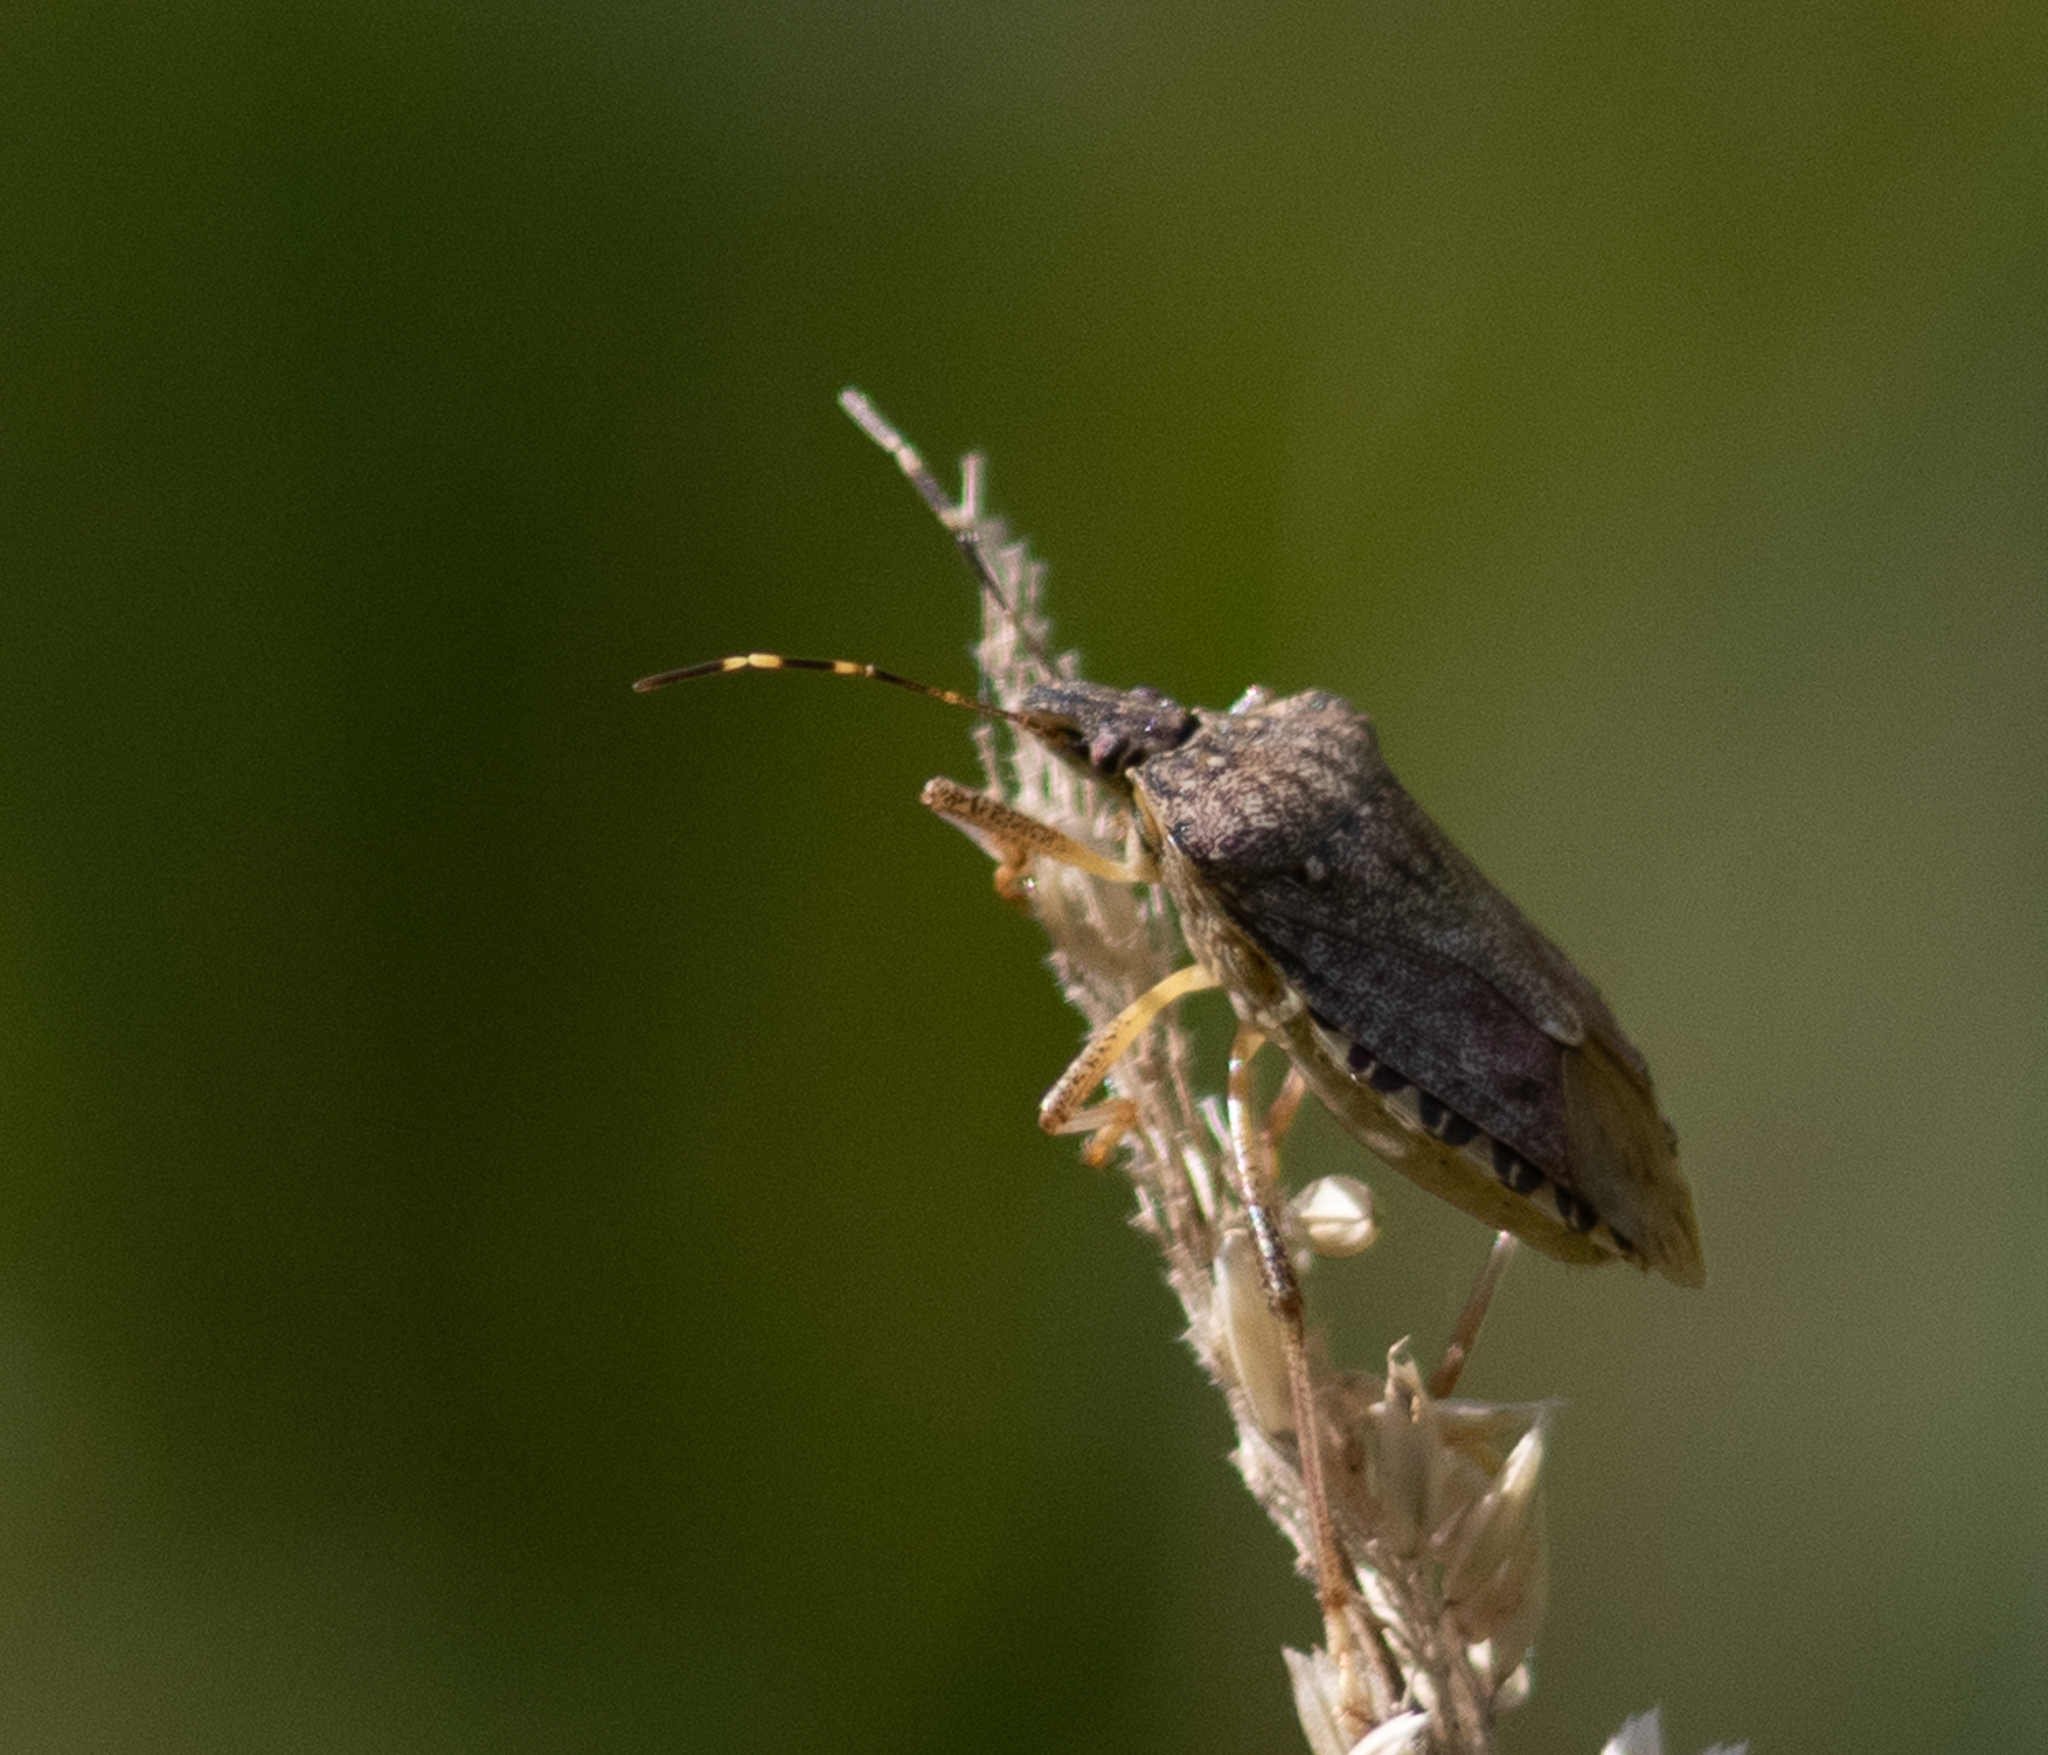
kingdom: Animalia
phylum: Arthropoda
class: Insecta
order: Hemiptera
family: Pentatomidae
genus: Halyomorpha
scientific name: Halyomorpha halys
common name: Brown marmorated stink bug
